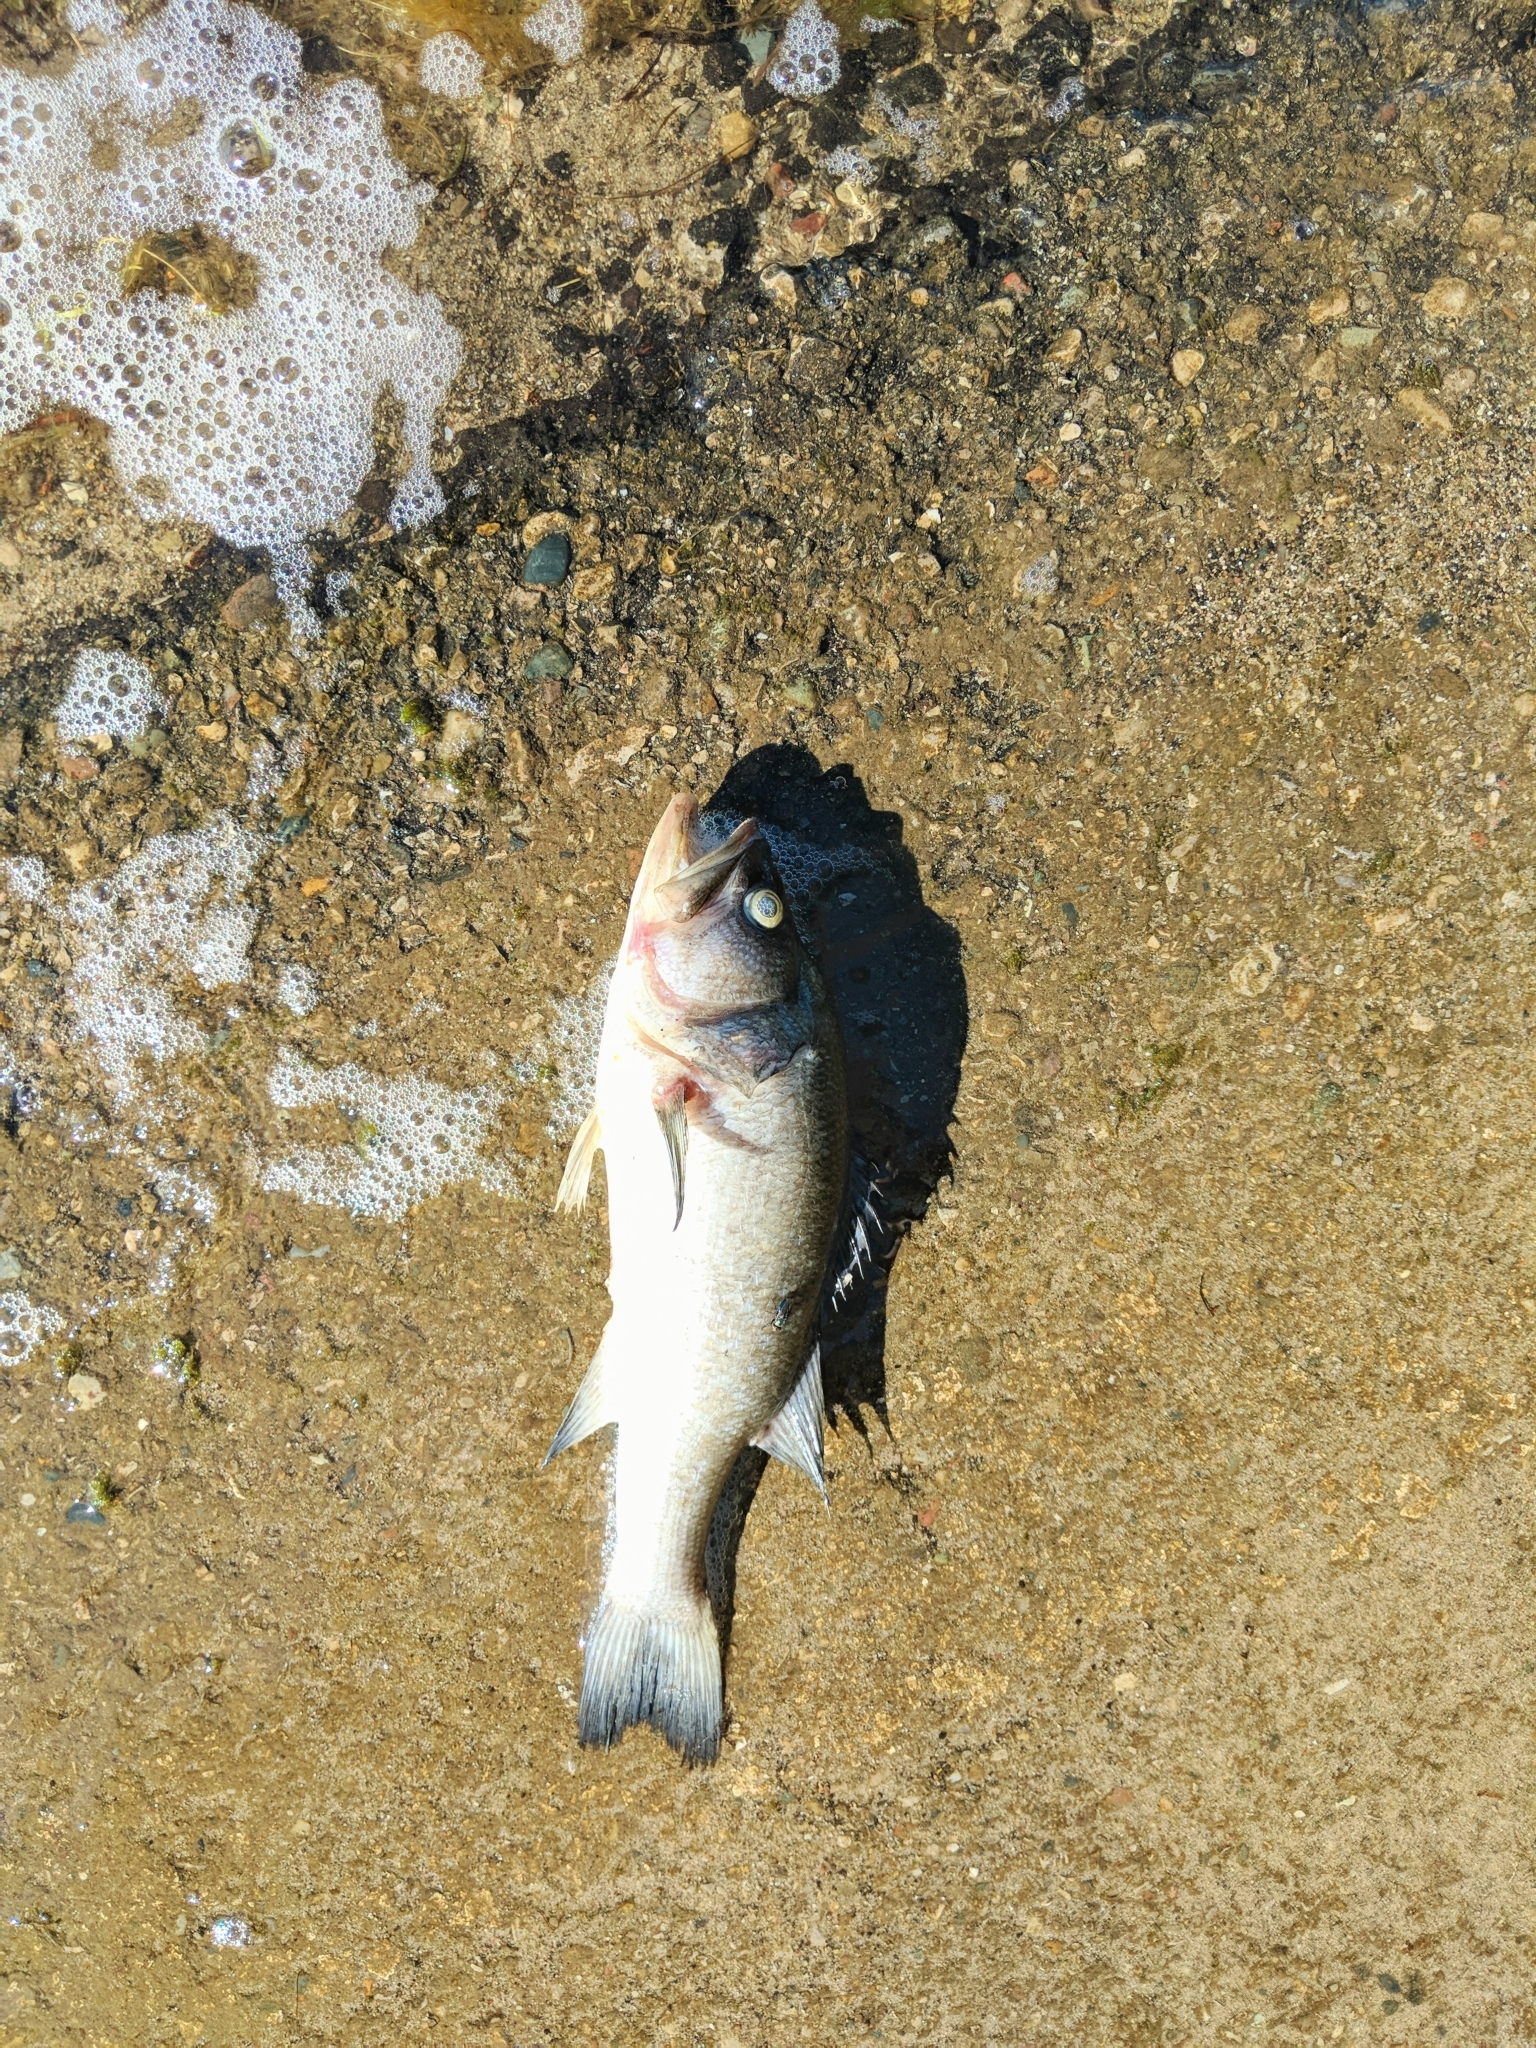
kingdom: Animalia
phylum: Chordata
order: Perciformes
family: Centrarchidae
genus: Micropterus
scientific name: Micropterus
